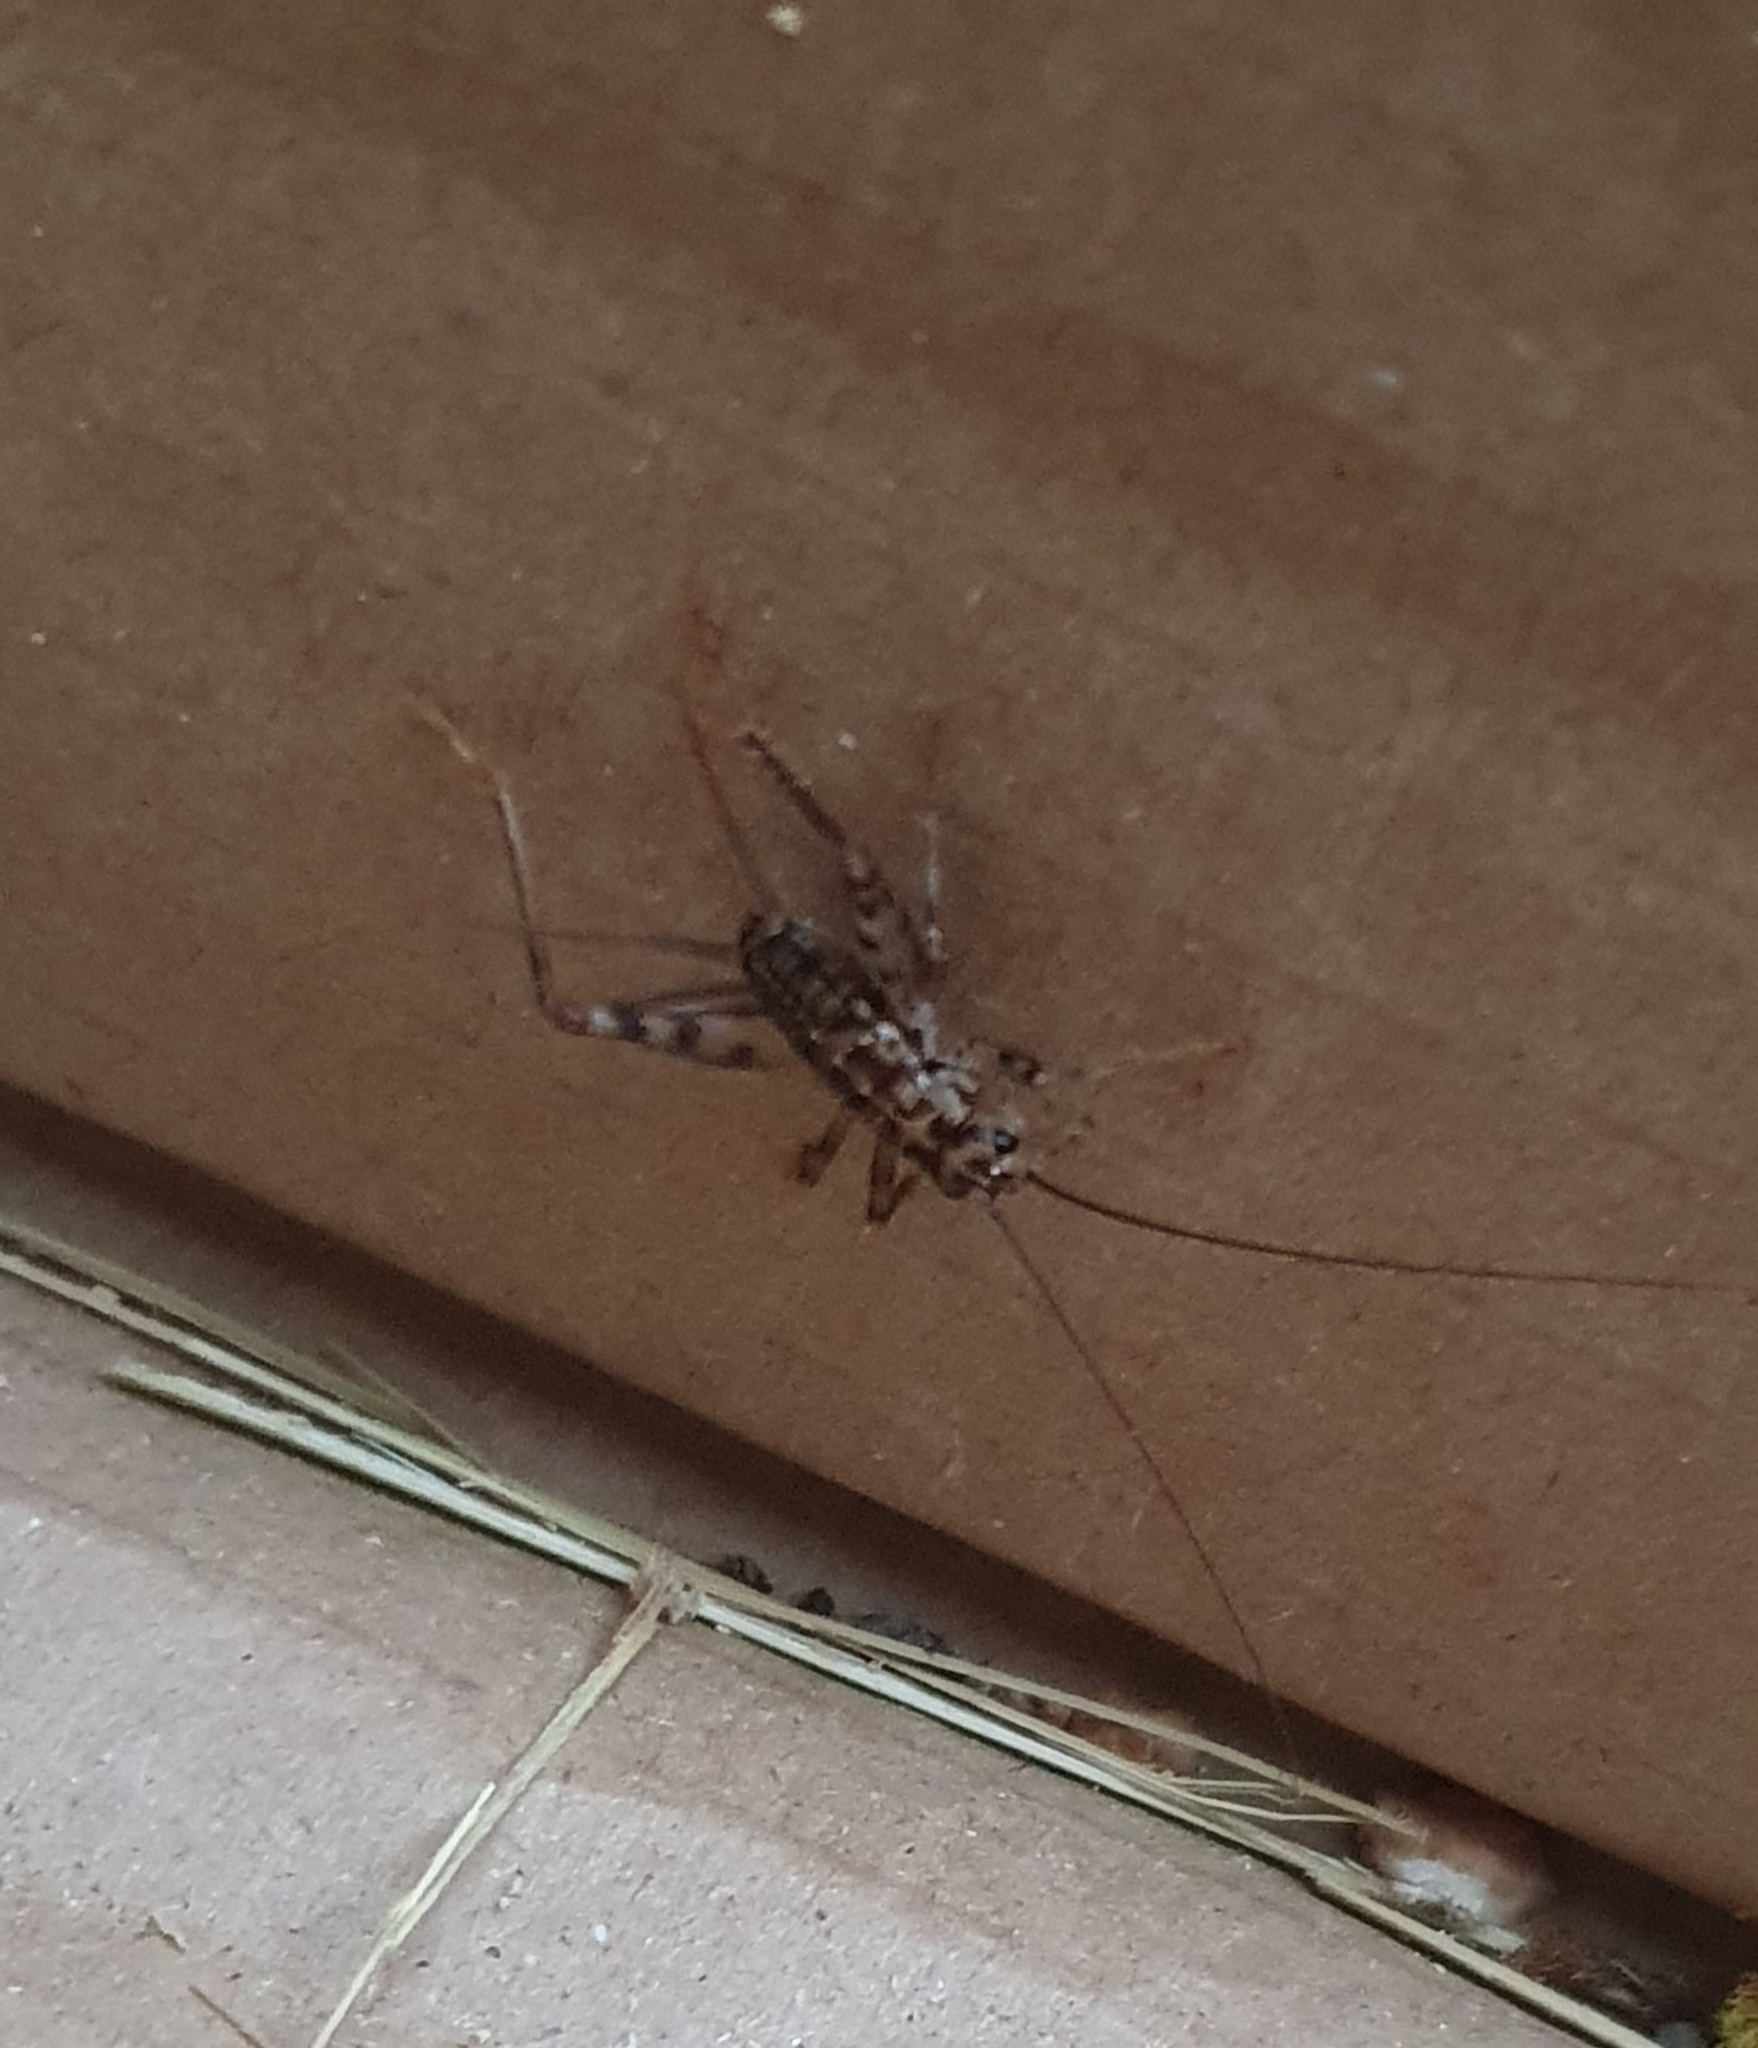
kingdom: Animalia
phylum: Arthropoda
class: Insecta
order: Orthoptera
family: Gryllidae
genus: Gryllomorpha
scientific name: Gryllomorpha dalmatina
